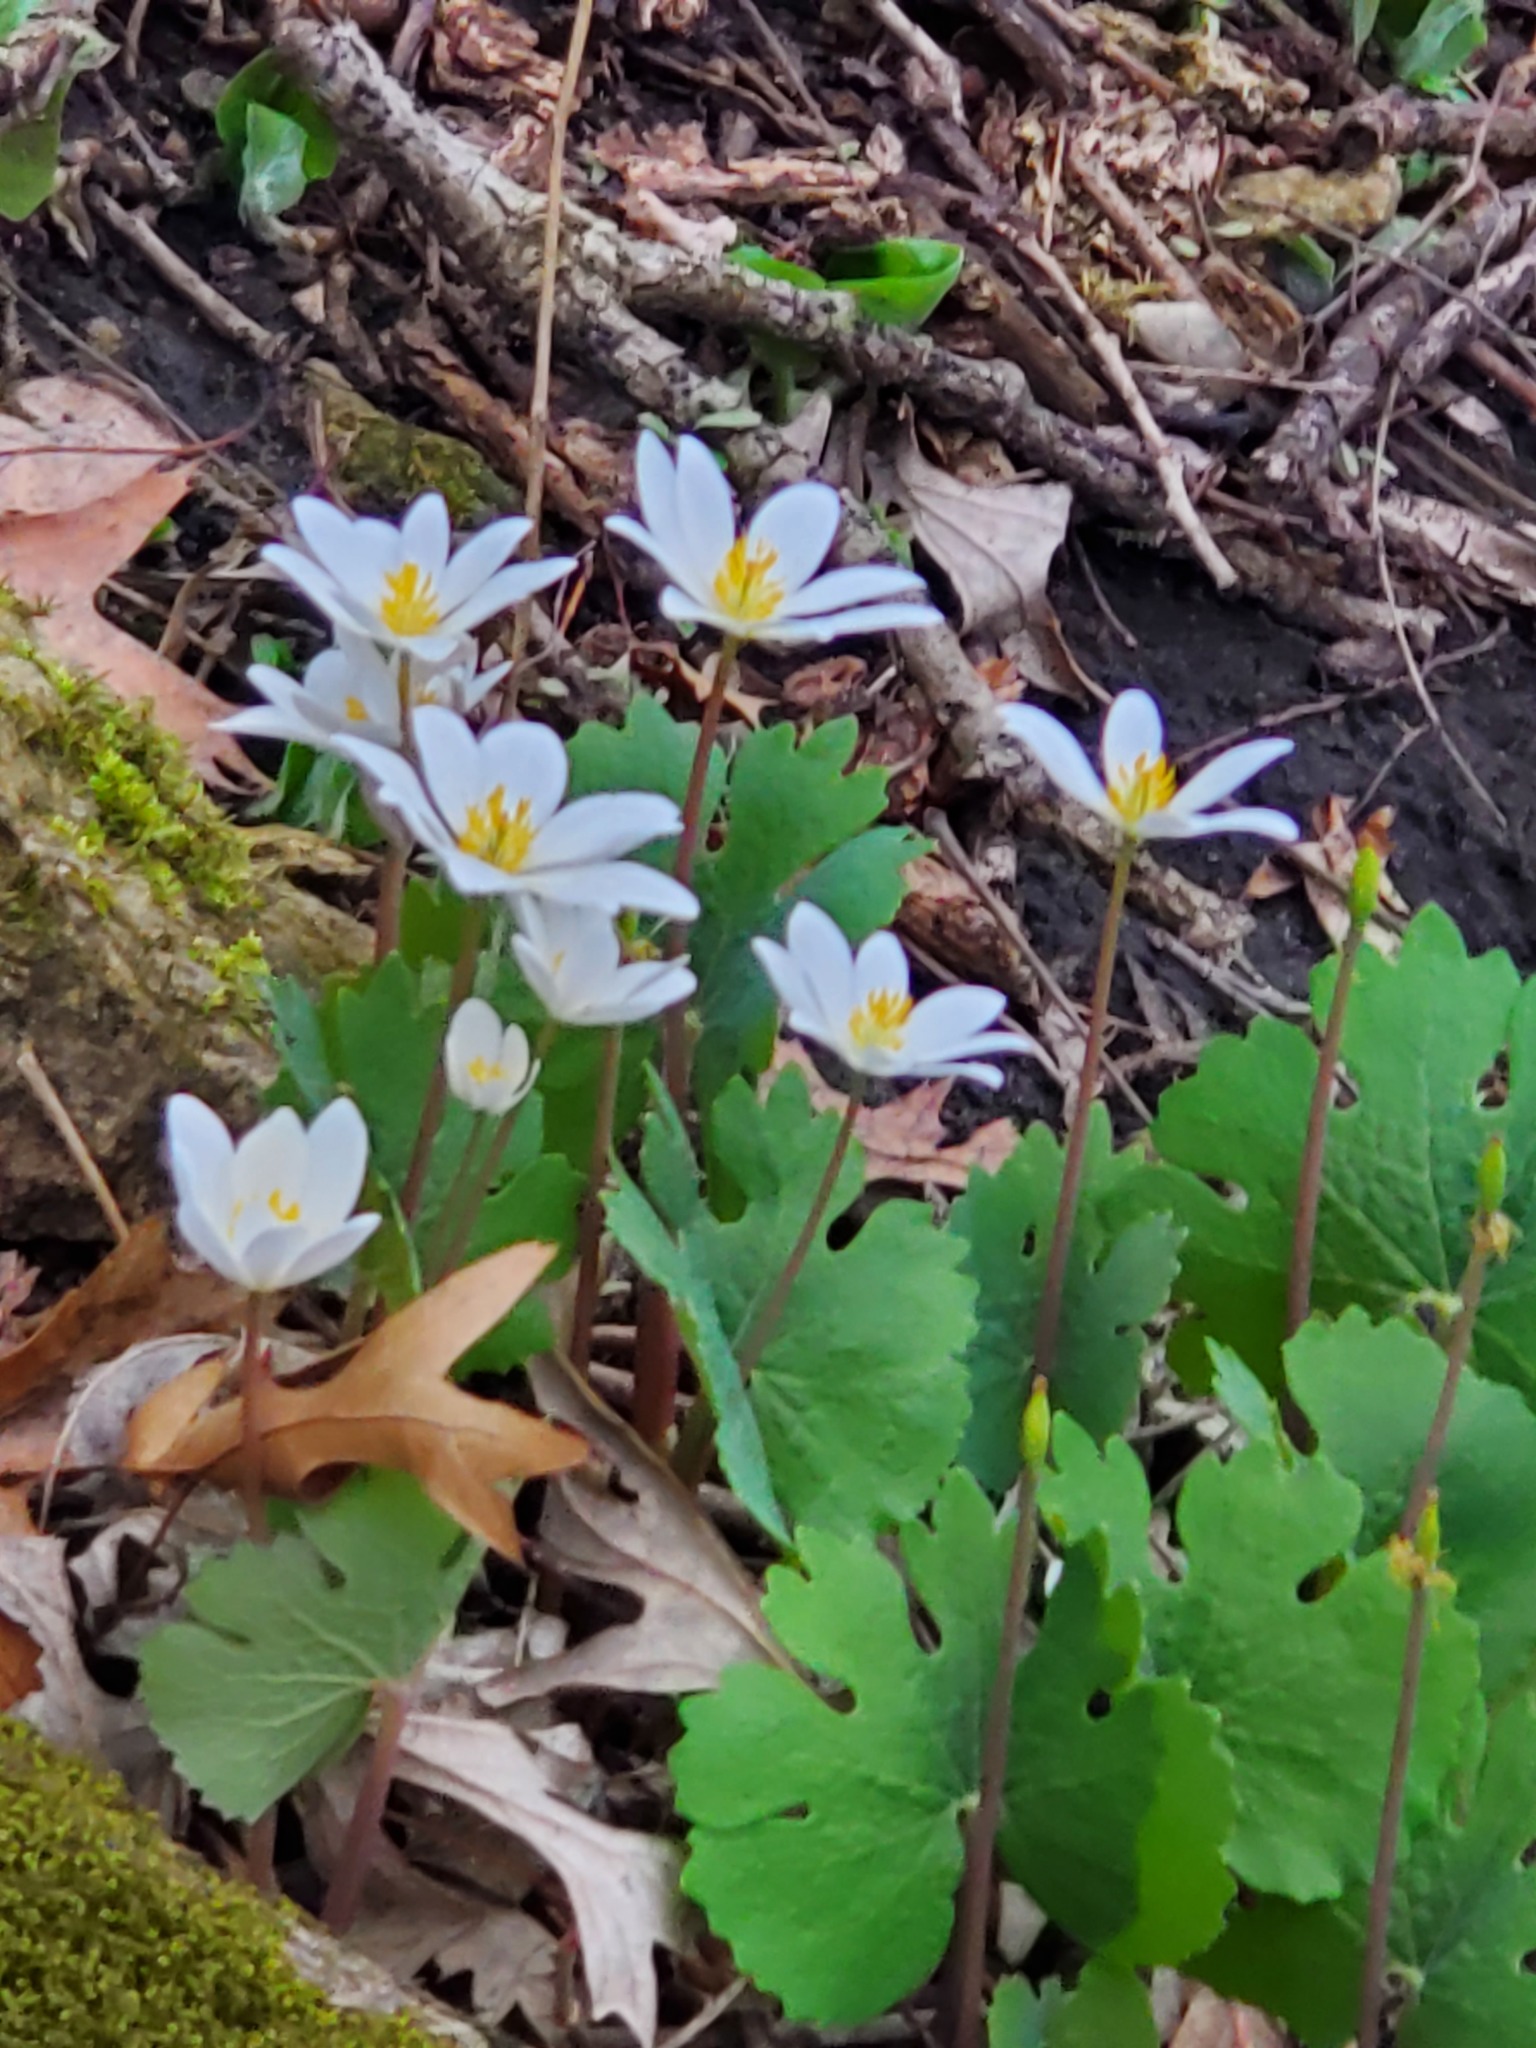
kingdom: Plantae
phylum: Tracheophyta
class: Magnoliopsida
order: Ranunculales
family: Papaveraceae
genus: Sanguinaria
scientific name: Sanguinaria canadensis
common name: Bloodroot
